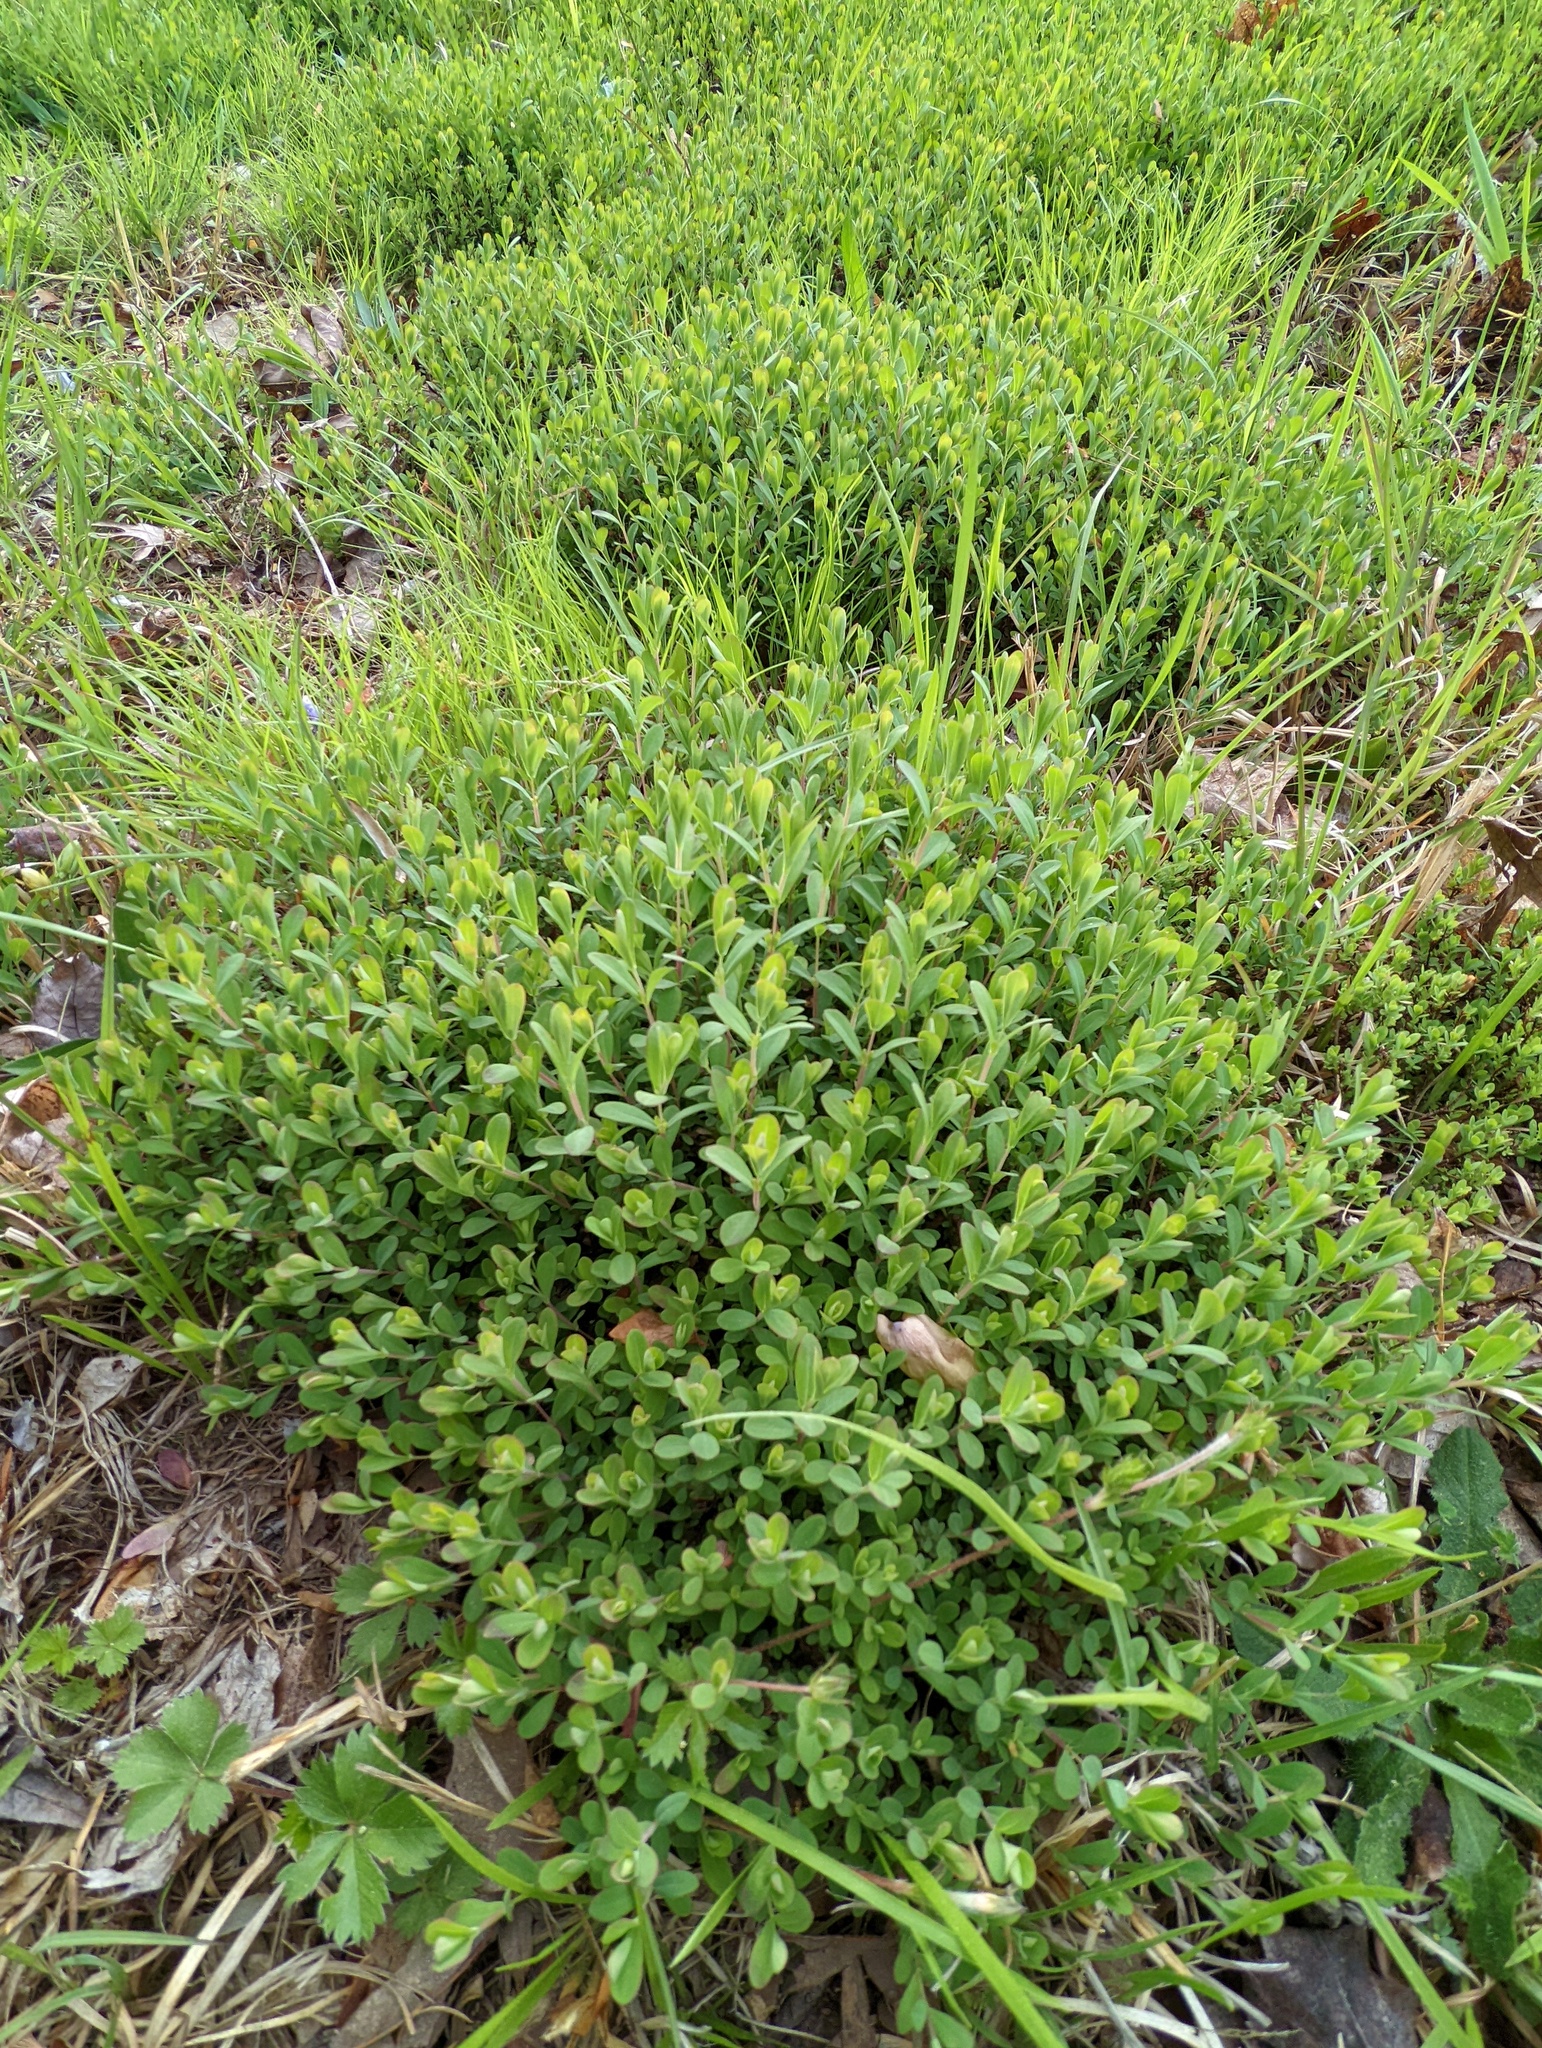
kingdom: Plantae
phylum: Tracheophyta
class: Magnoliopsida
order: Malpighiales
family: Hypericaceae
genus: Hypericum
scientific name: Hypericum hypericoides
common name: St. andrew's cross
